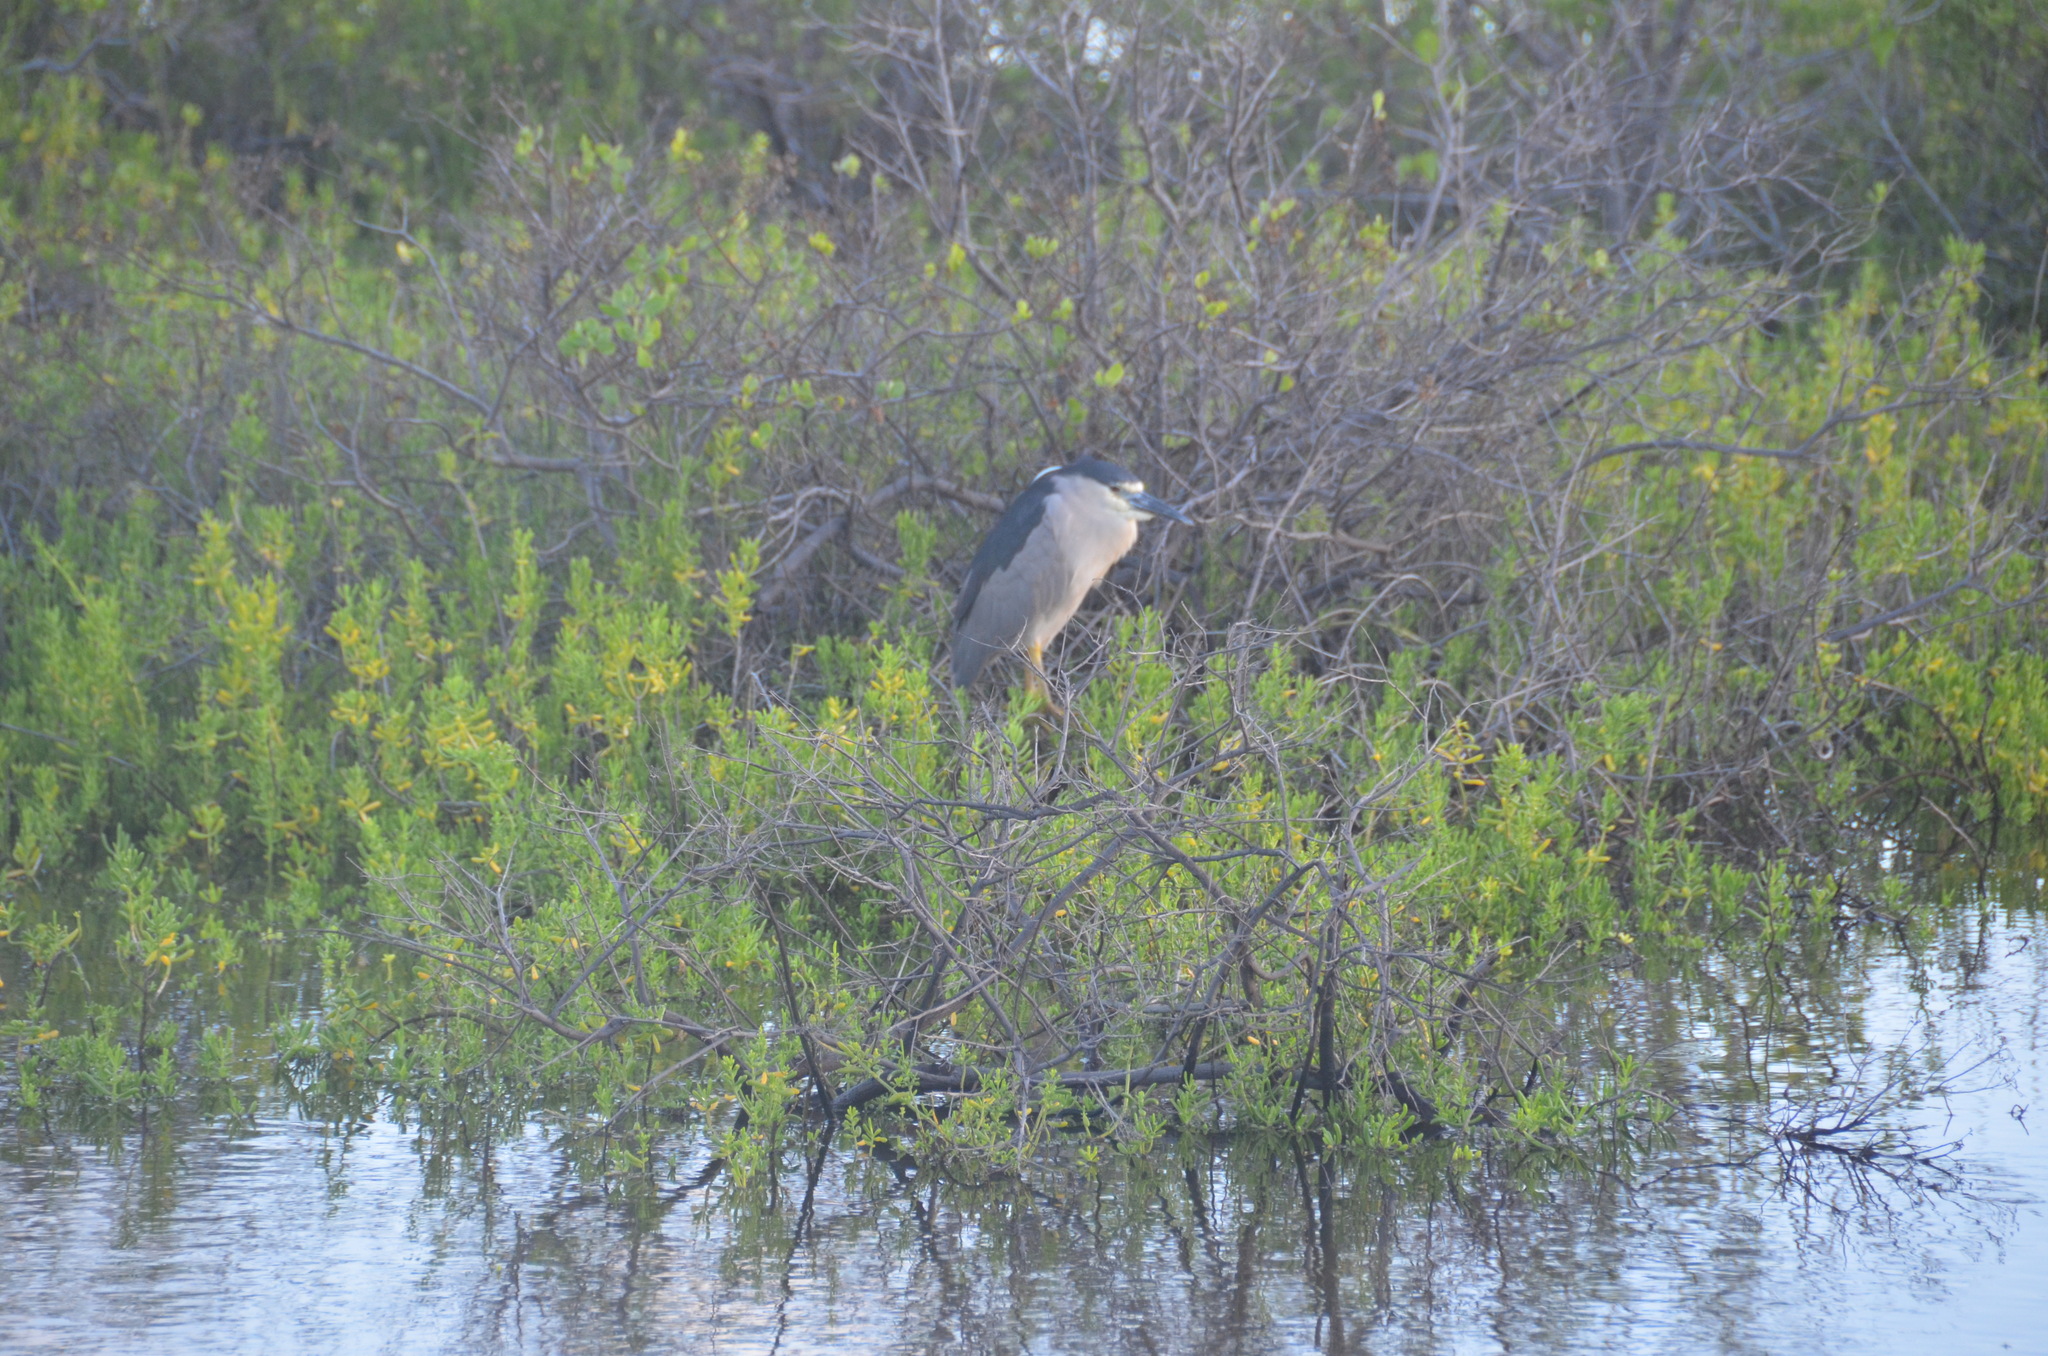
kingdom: Animalia
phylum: Chordata
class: Aves
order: Pelecaniformes
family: Ardeidae
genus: Nycticorax
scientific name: Nycticorax nycticorax
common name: Black-crowned night heron
